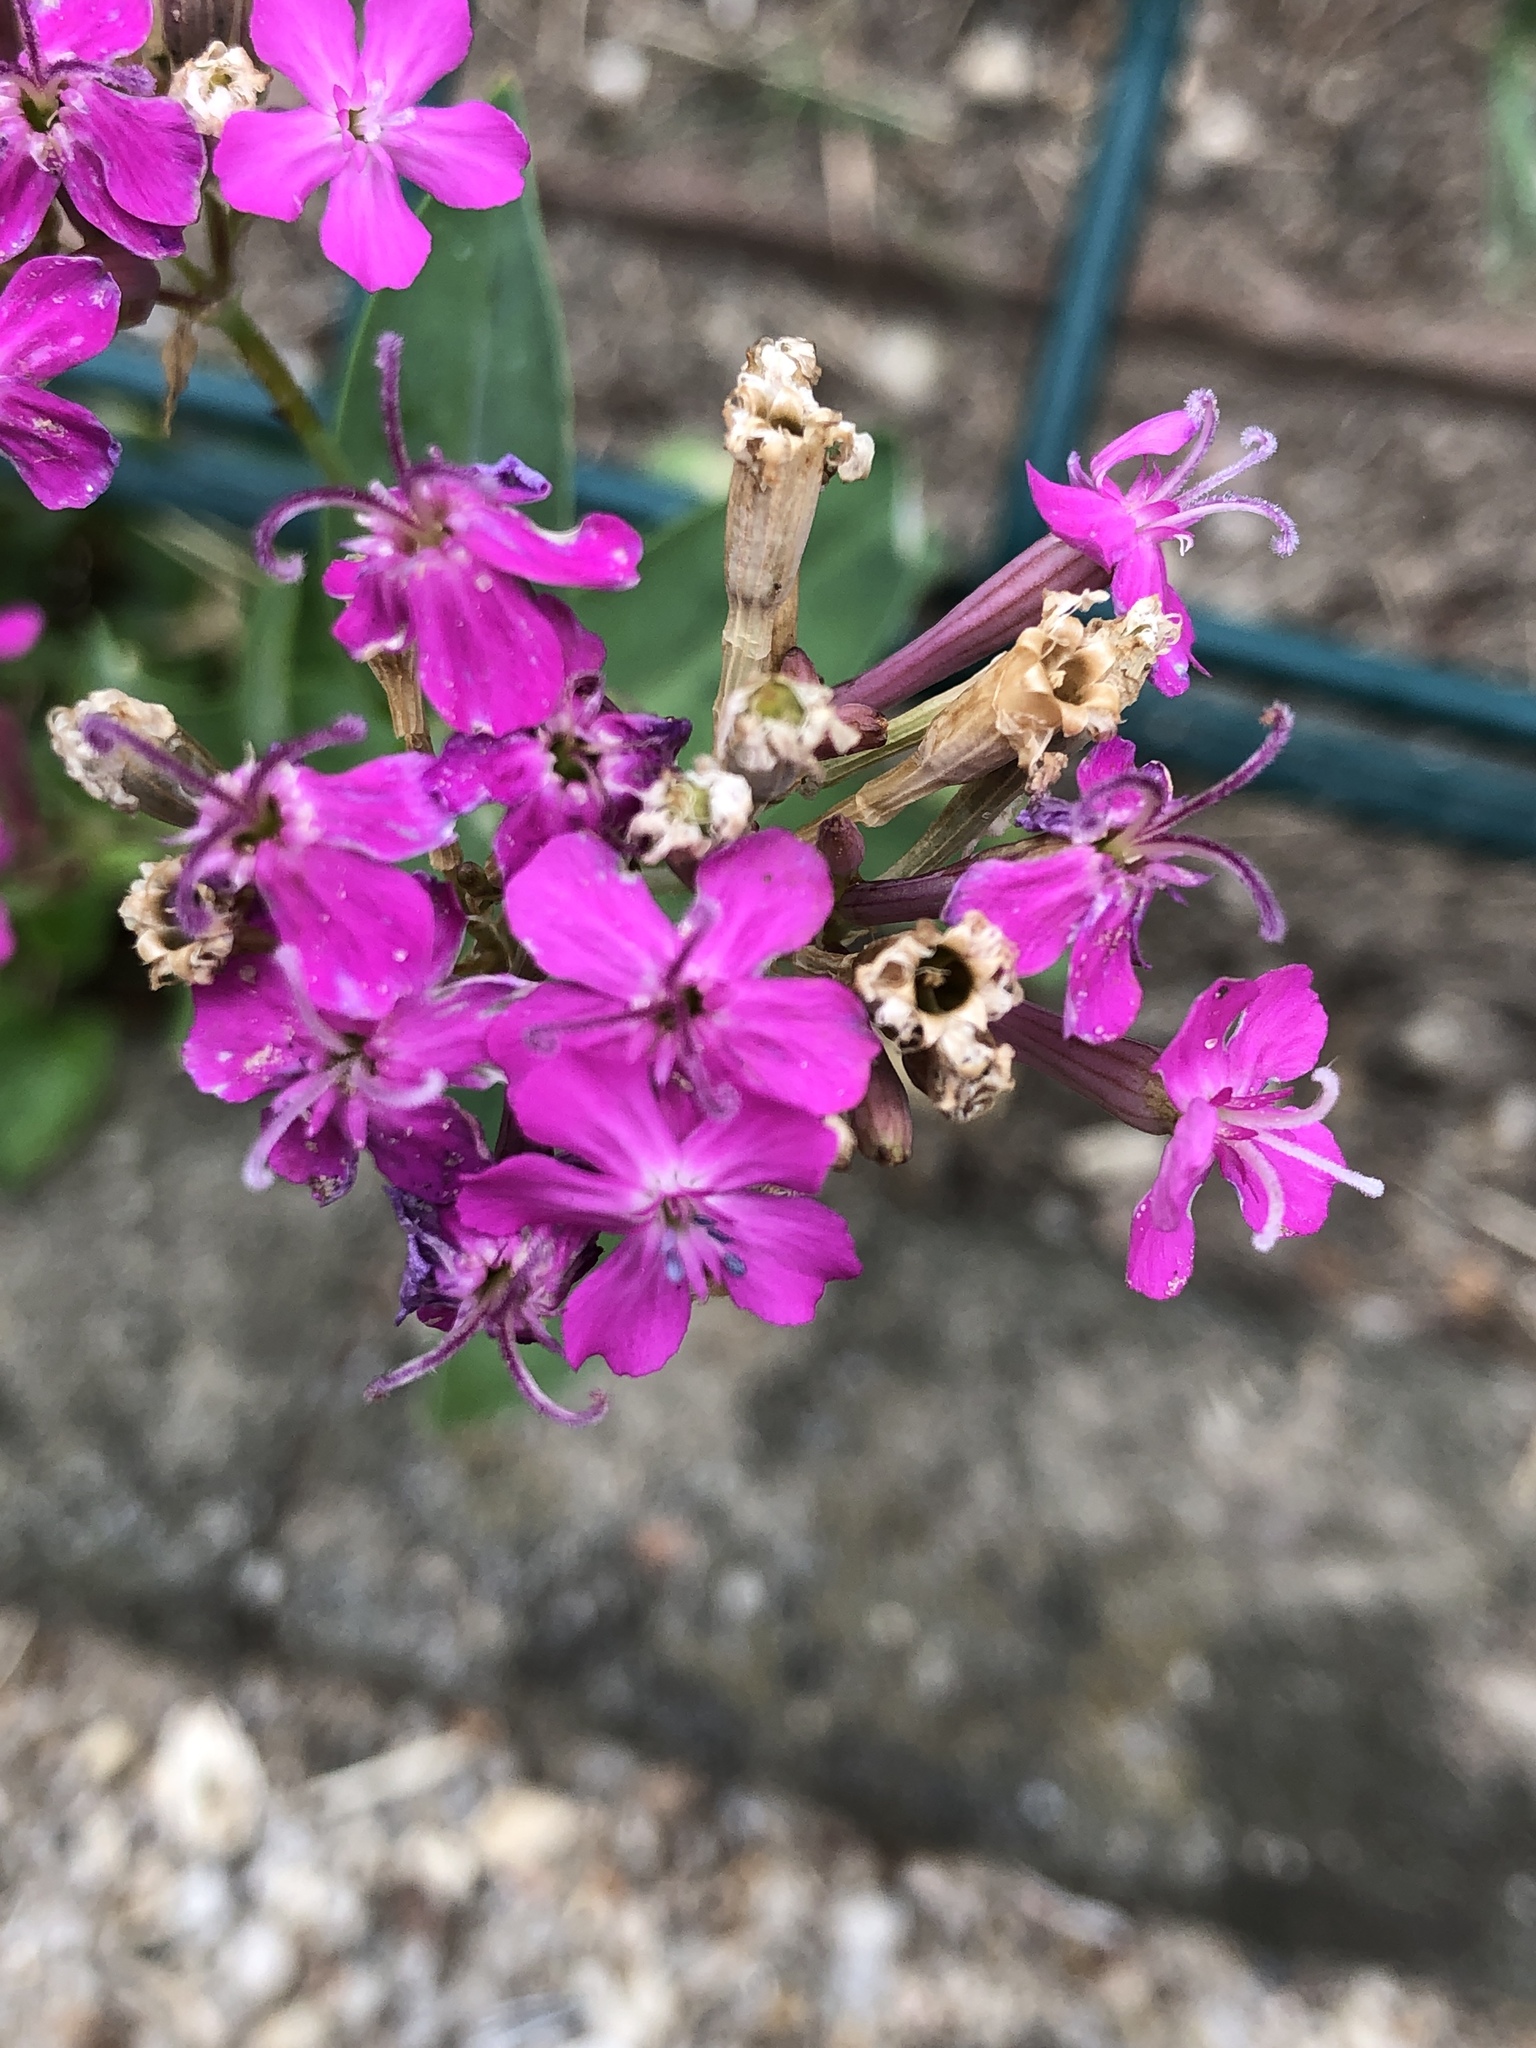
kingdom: Plantae
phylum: Tracheophyta
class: Magnoliopsida
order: Caryophyllales
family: Caryophyllaceae
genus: Atocion
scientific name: Atocion armeria
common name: Sweet william catchfly
